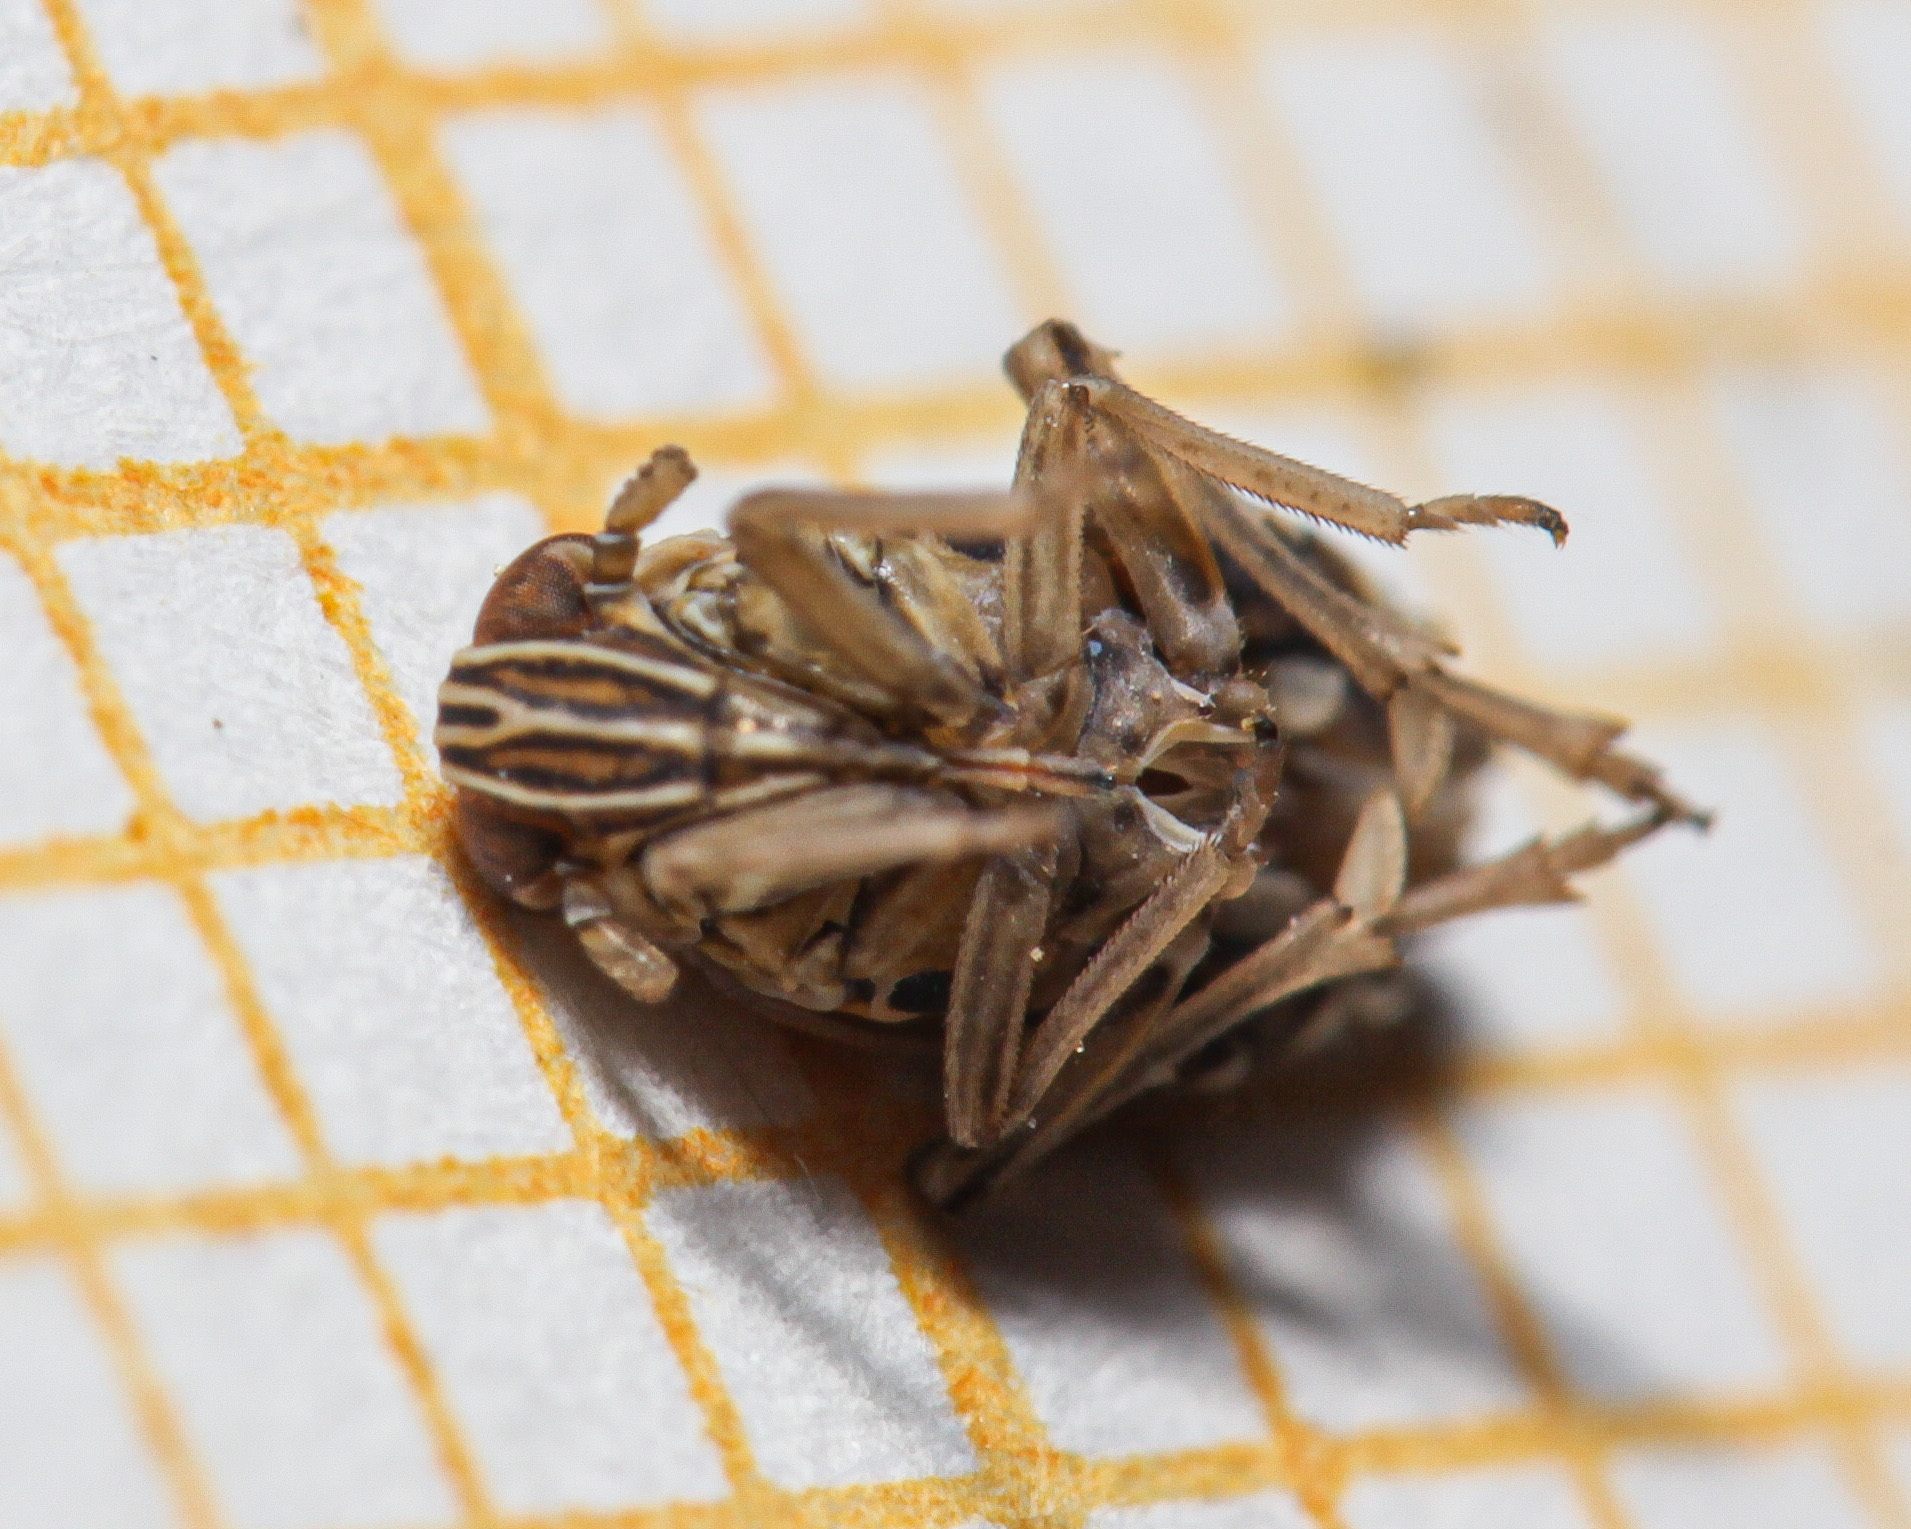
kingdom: Animalia
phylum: Arthropoda
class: Insecta
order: Hemiptera
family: Delphacidae
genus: Dicranotropis
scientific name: Dicranotropis hamata
